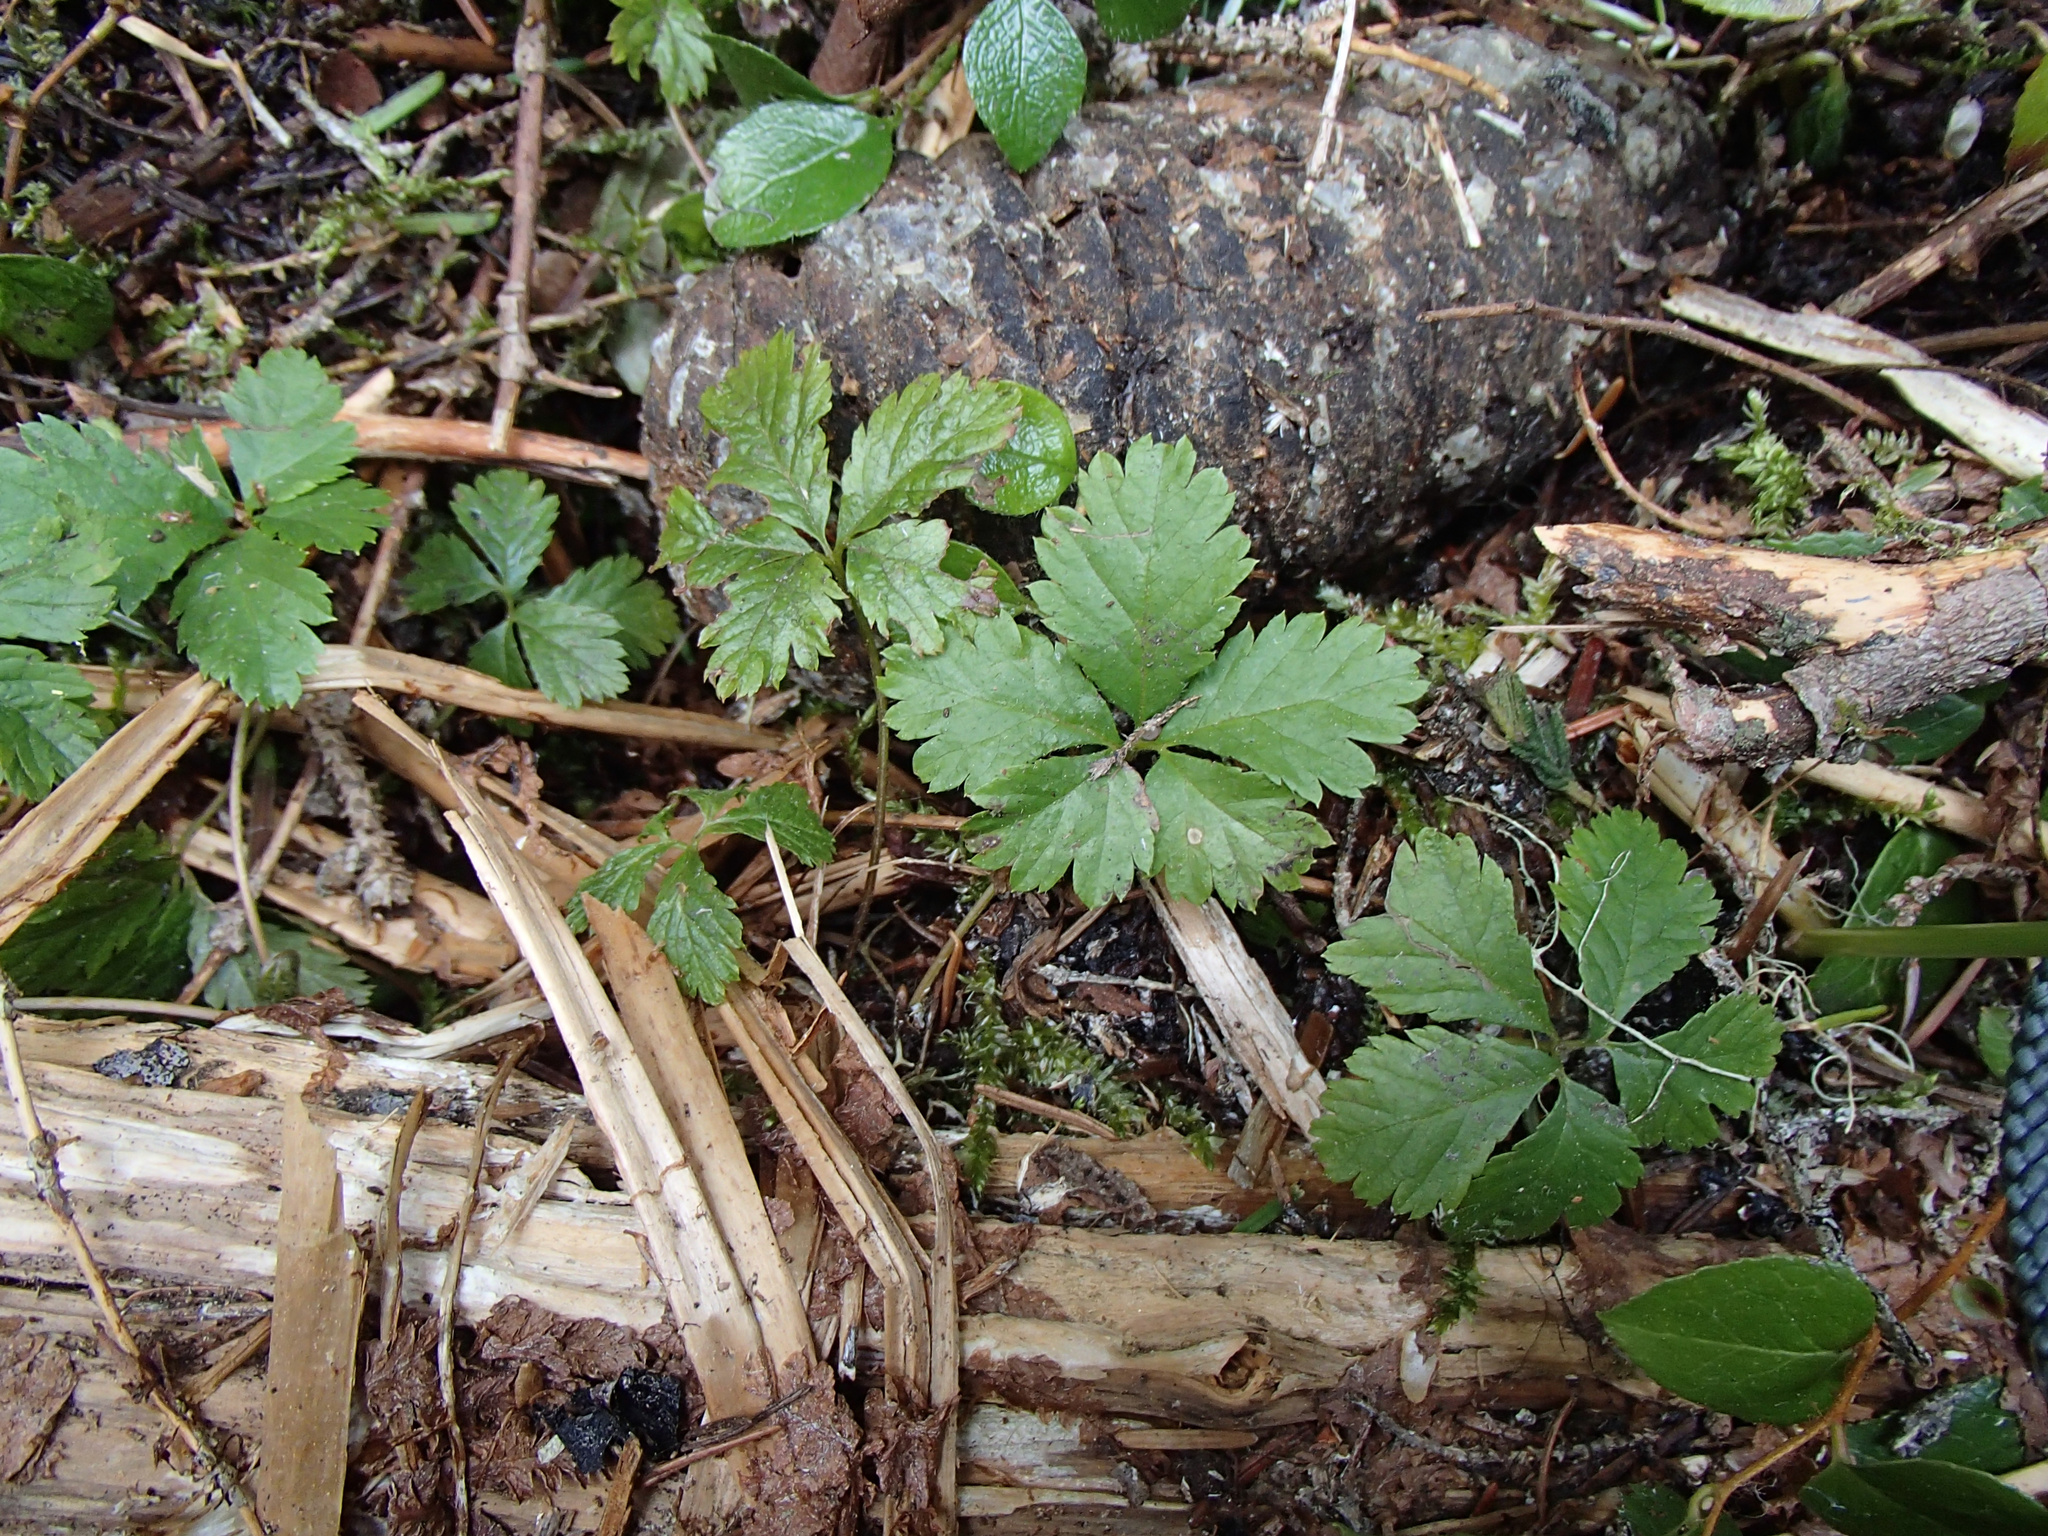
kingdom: Plantae
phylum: Tracheophyta
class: Magnoliopsida
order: Rosales
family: Rosaceae
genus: Rubus
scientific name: Rubus pedatus
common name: Creeping raspberry
